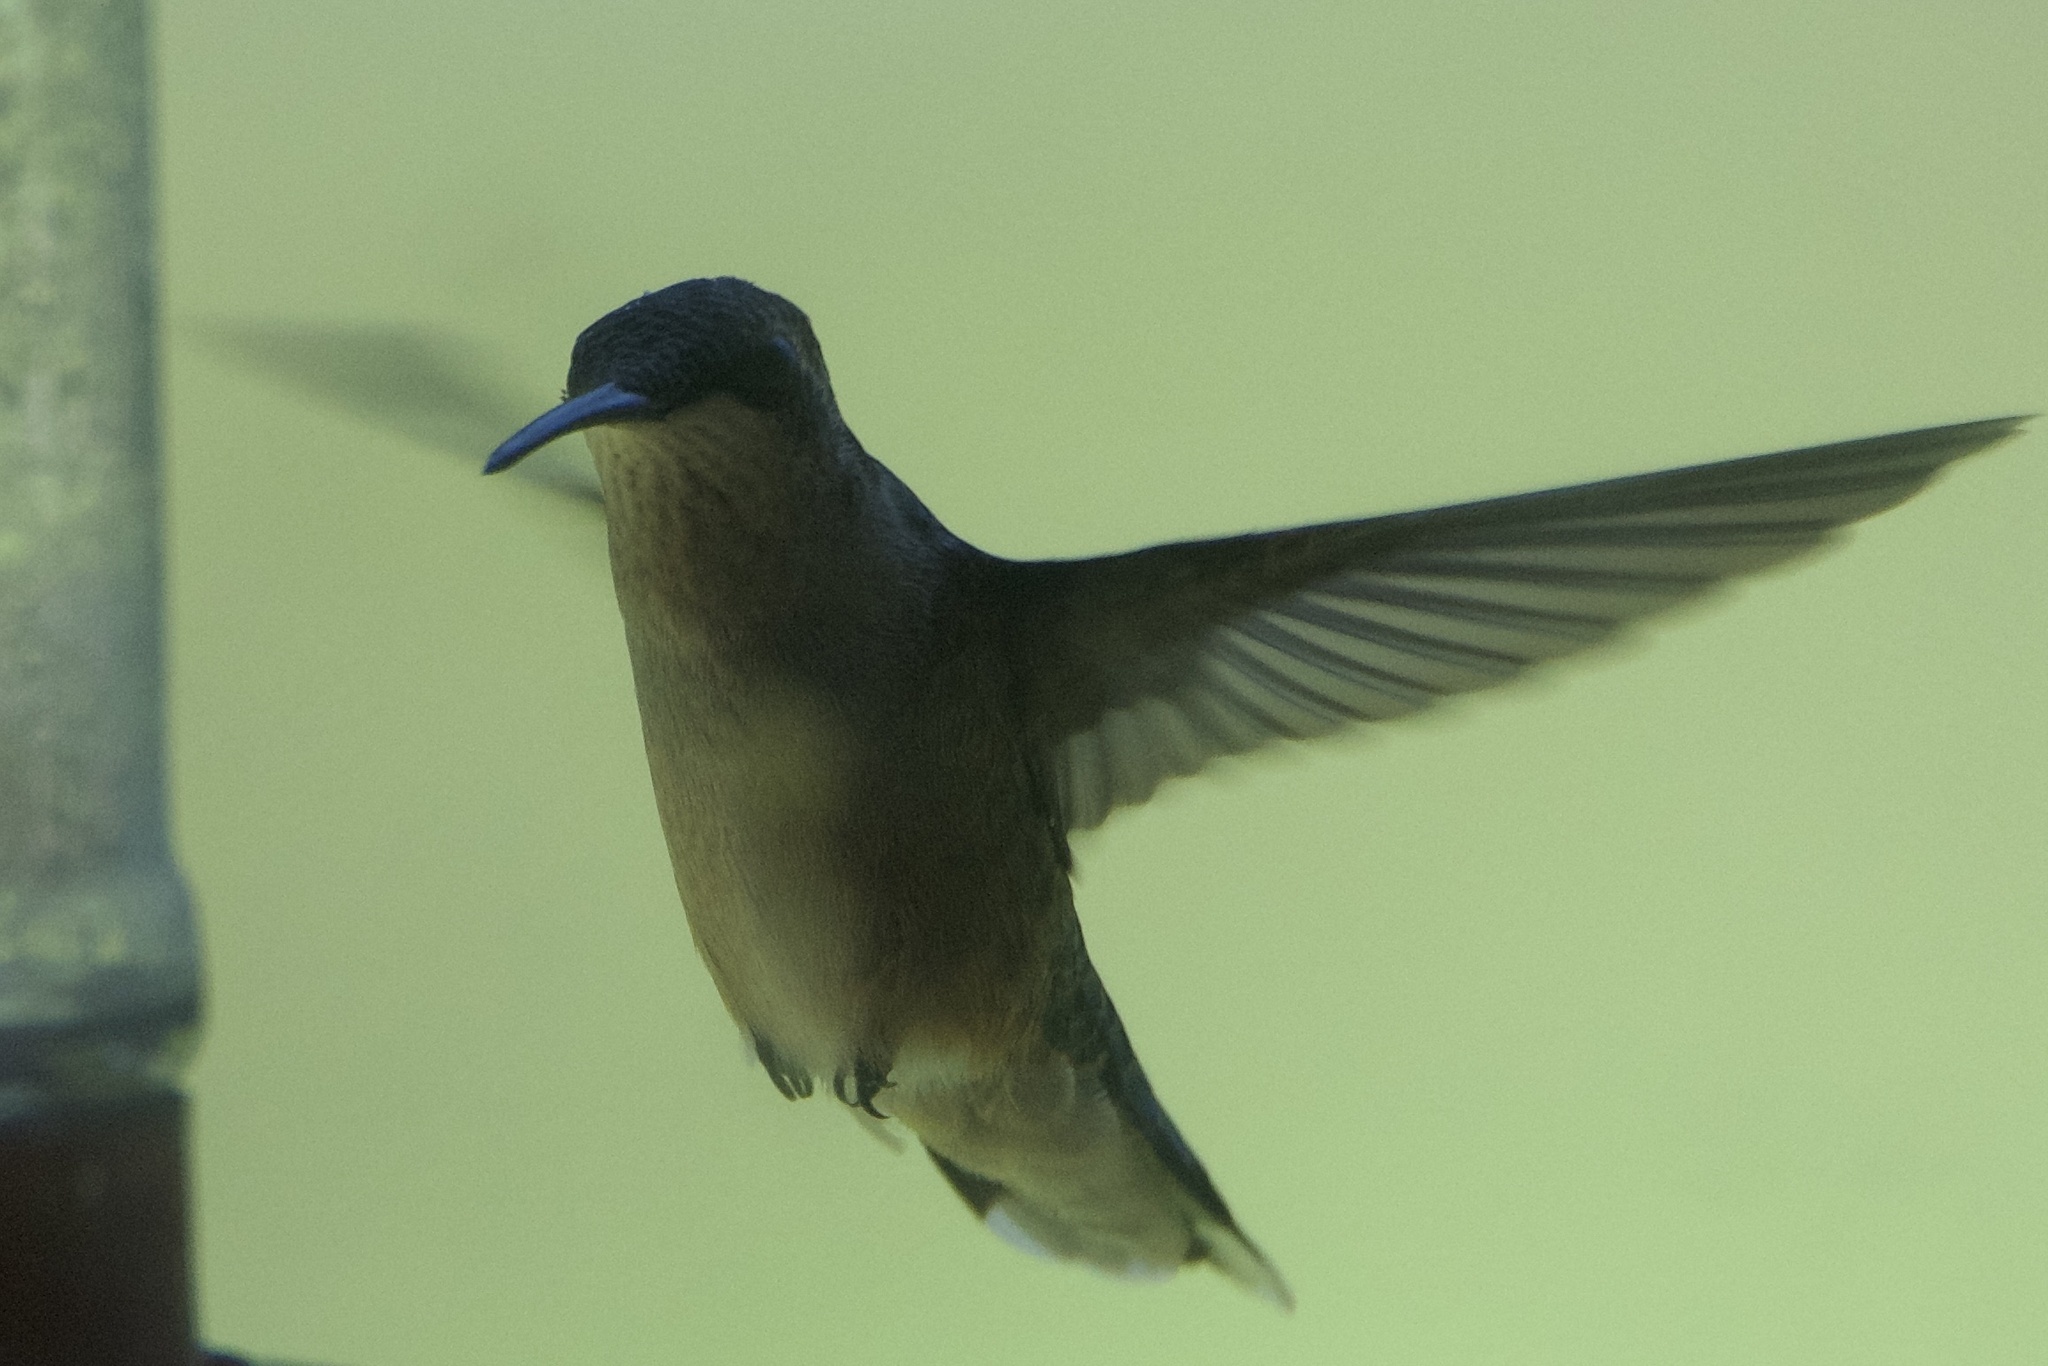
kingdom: Animalia
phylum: Chordata
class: Aves
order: Apodiformes
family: Trochilidae
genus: Archilochus
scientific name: Archilochus colubris
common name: Ruby-throated hummingbird
